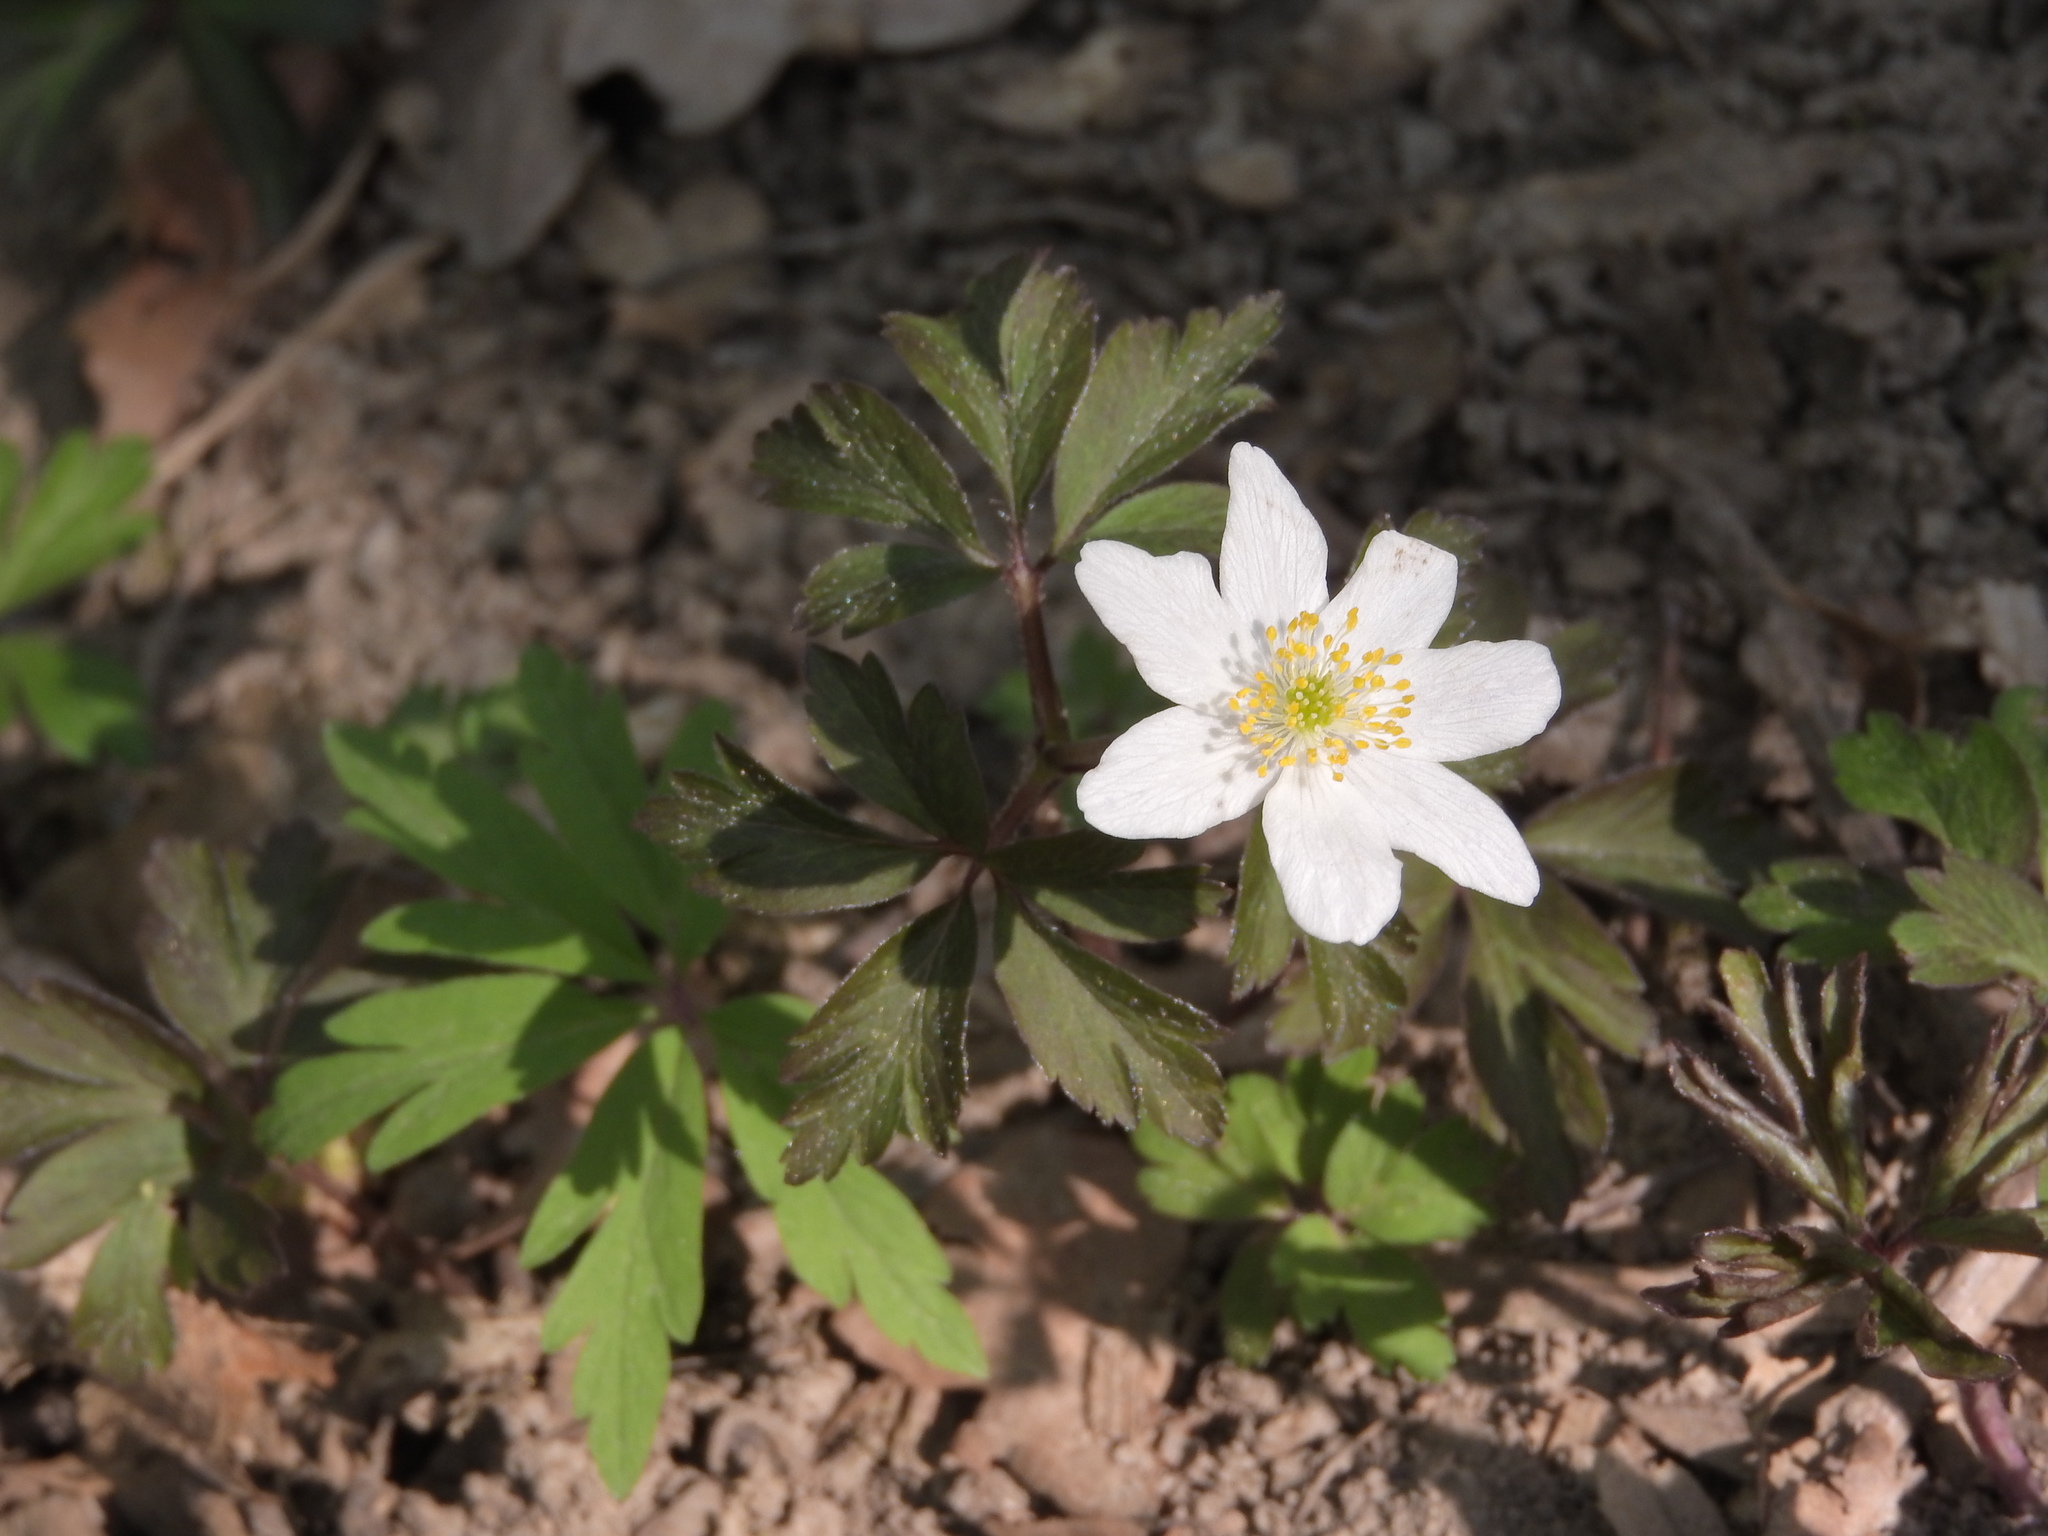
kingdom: Plantae
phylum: Tracheophyta
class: Magnoliopsida
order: Ranunculales
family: Ranunculaceae
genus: Anemone
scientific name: Anemone nemorosa
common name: Wood anemone
